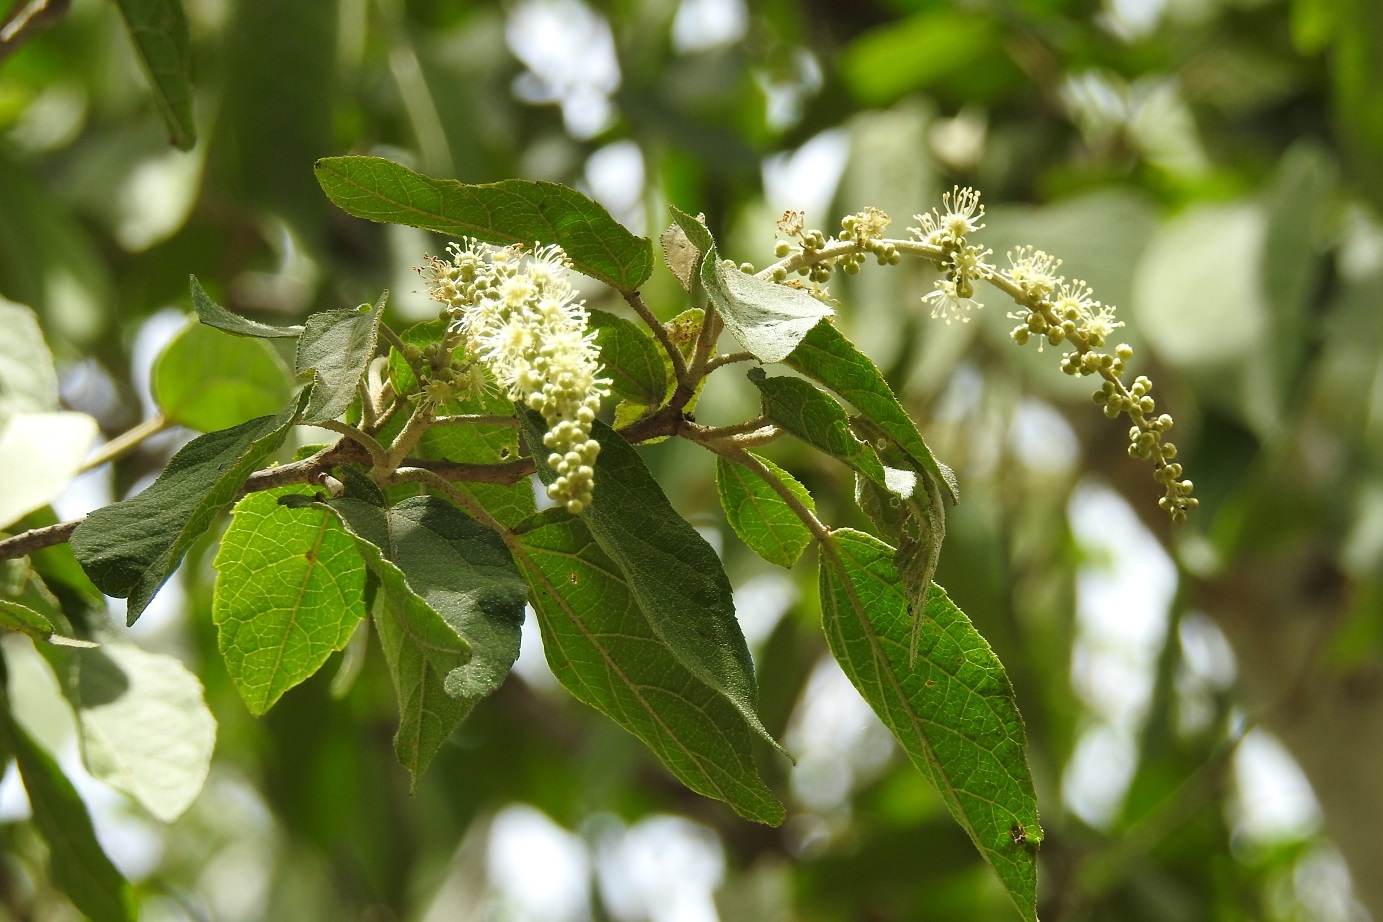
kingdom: Plantae
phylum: Tracheophyta
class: Magnoliopsida
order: Malpighiales
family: Euphorbiaceae
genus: Croton
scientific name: Croton francoanus
